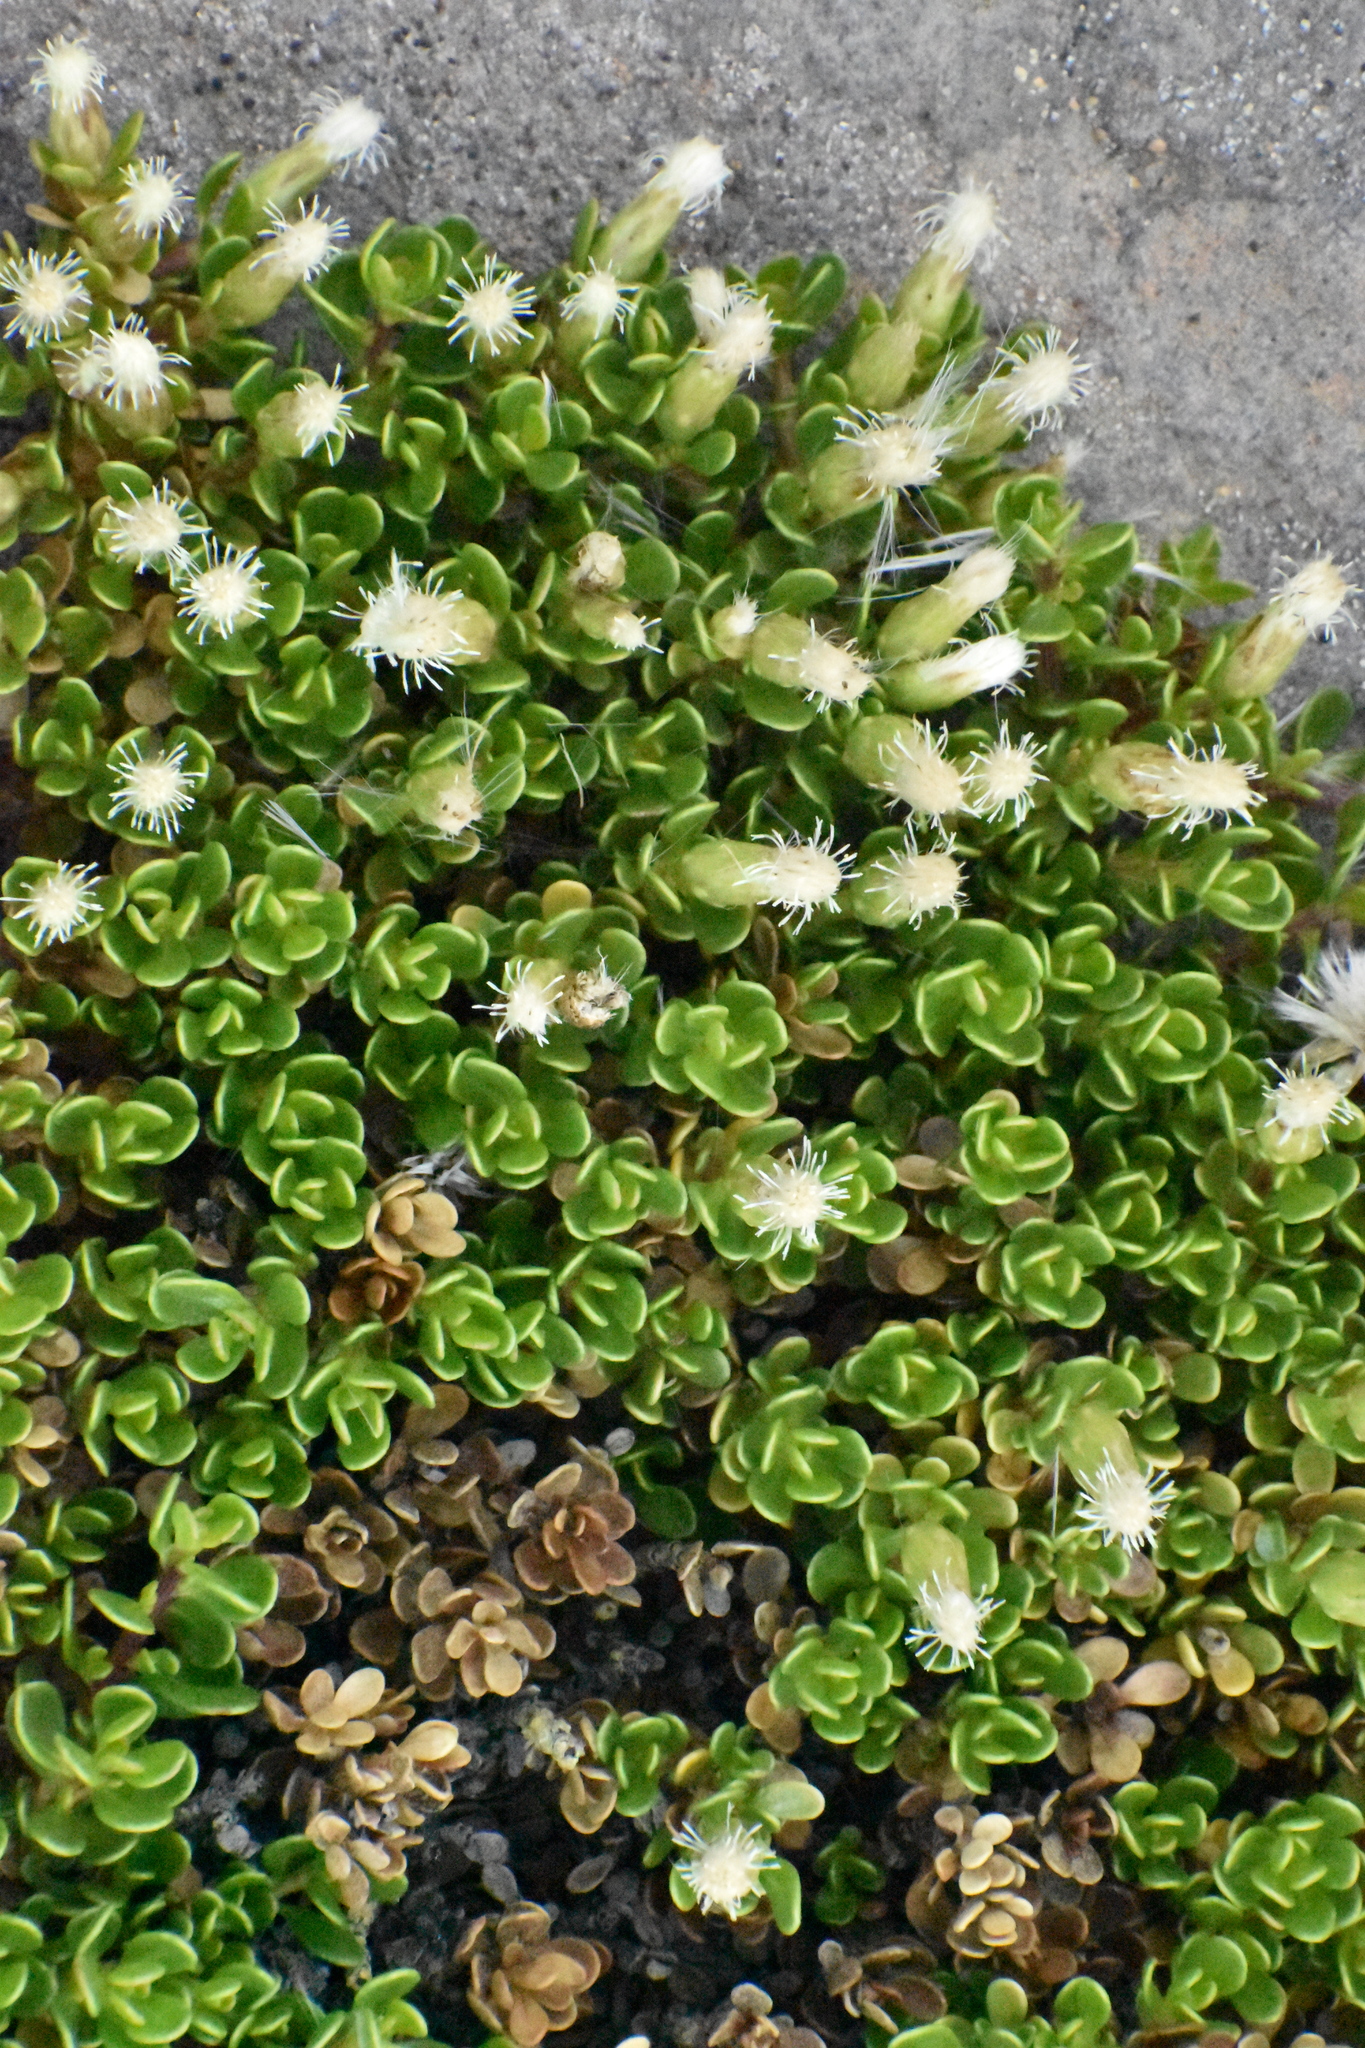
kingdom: Plantae
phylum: Tracheophyta
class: Magnoliopsida
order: Asterales
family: Asteraceae
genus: Baccharis
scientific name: Baccharis magellanica
